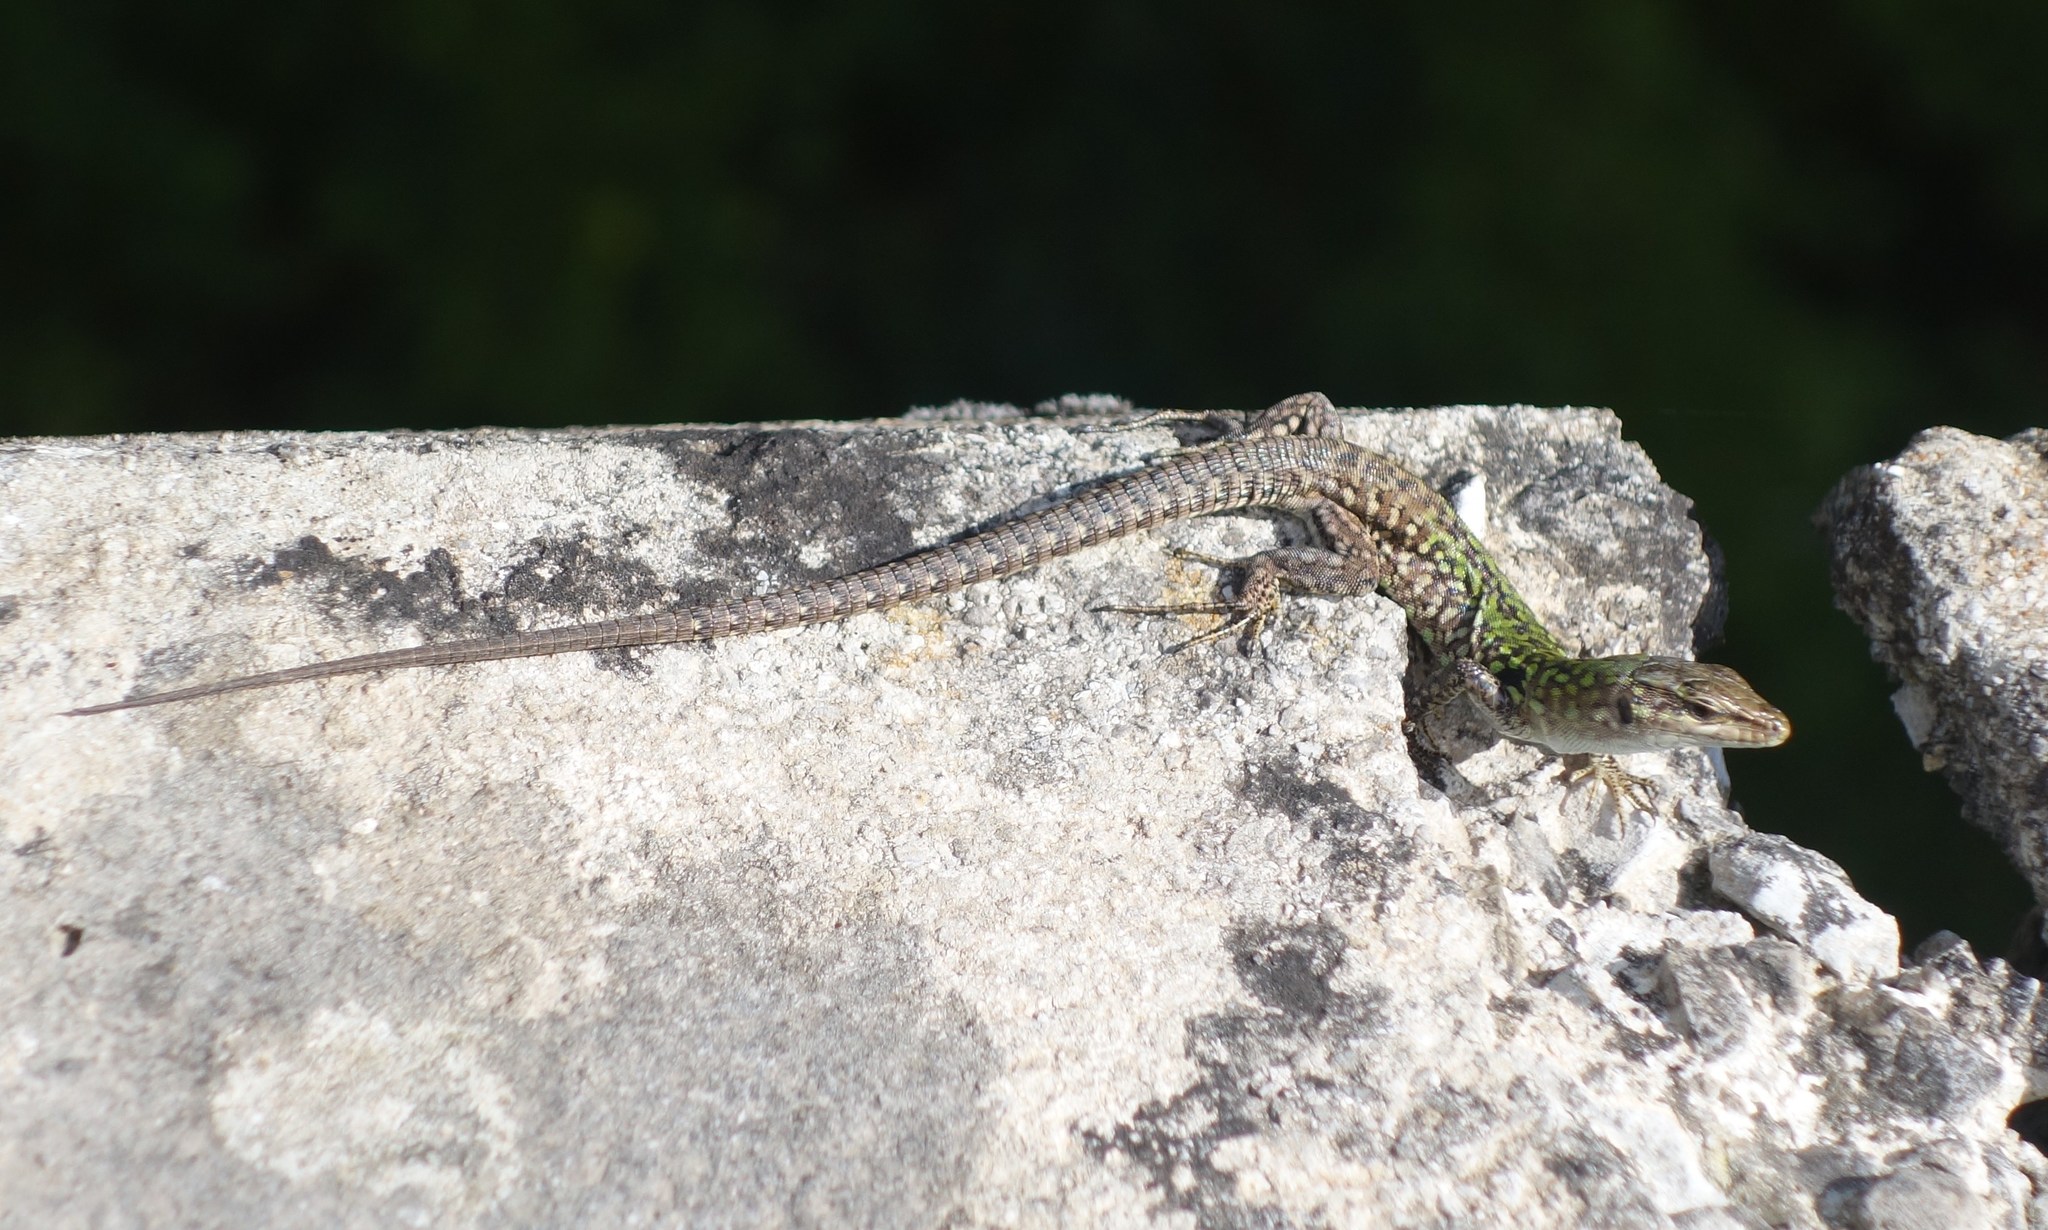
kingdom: Animalia
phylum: Chordata
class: Squamata
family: Lacertidae
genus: Podarcis
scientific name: Podarcis siculus
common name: Italian wall lizard
